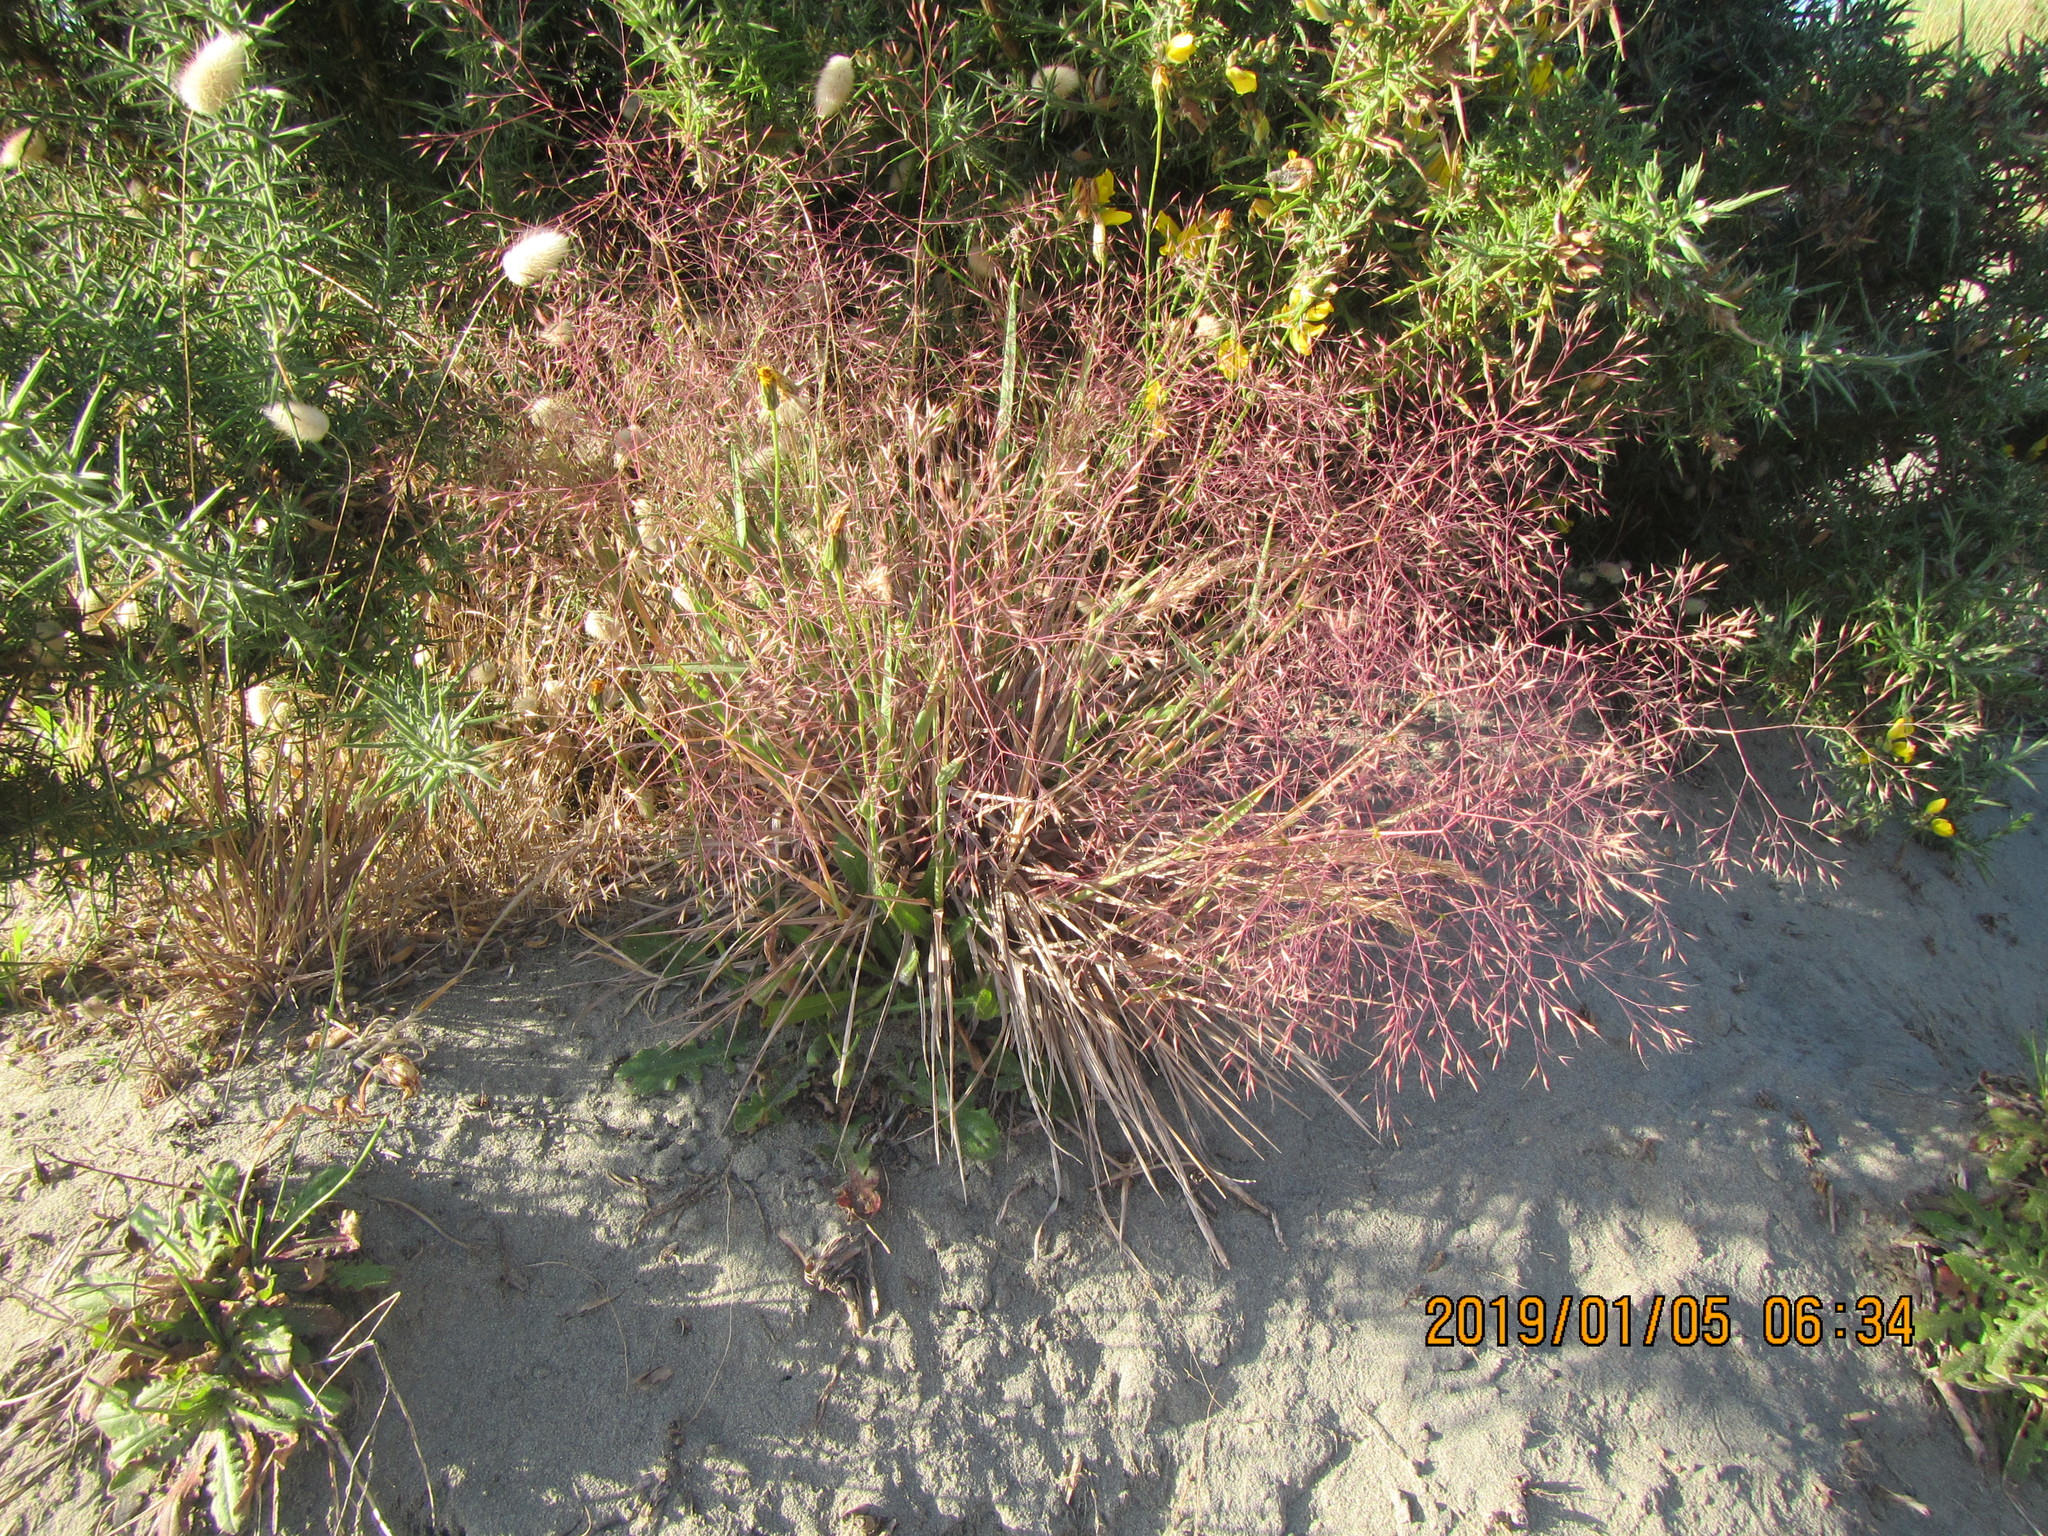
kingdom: Plantae
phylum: Tracheophyta
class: Liliopsida
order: Poales
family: Poaceae
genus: Lachnagrostis
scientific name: Lachnagrostis billardierei
